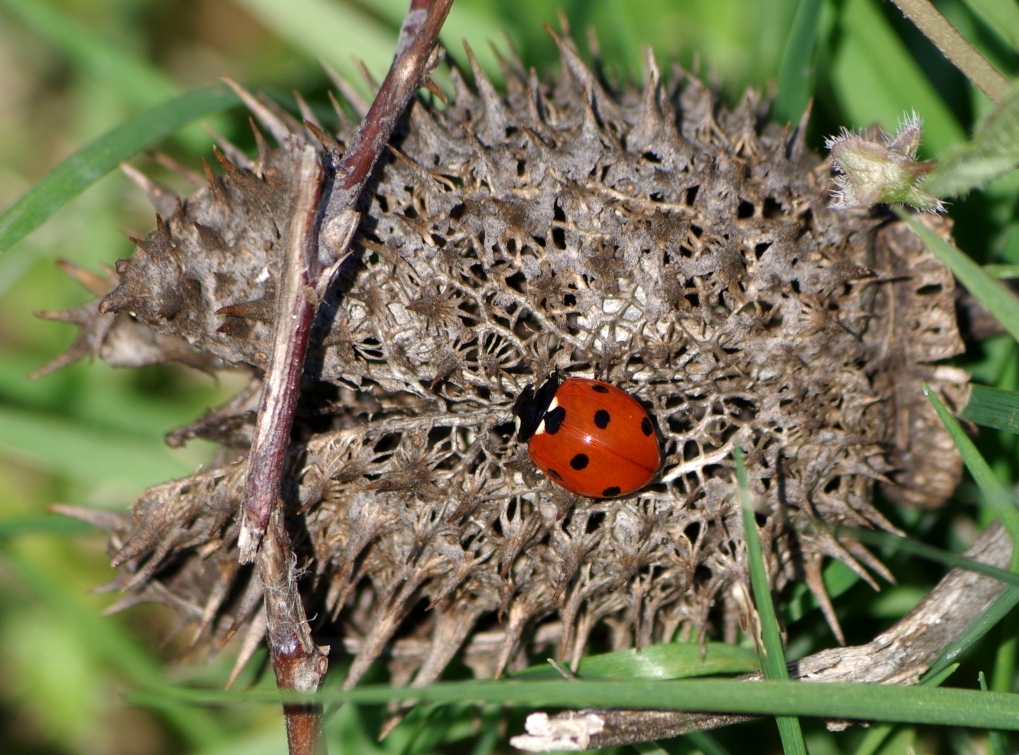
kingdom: Animalia
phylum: Arthropoda
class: Insecta
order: Coleoptera
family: Coccinellidae
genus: Coccinella
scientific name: Coccinella septempunctata
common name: Sevenspotted lady beetle
